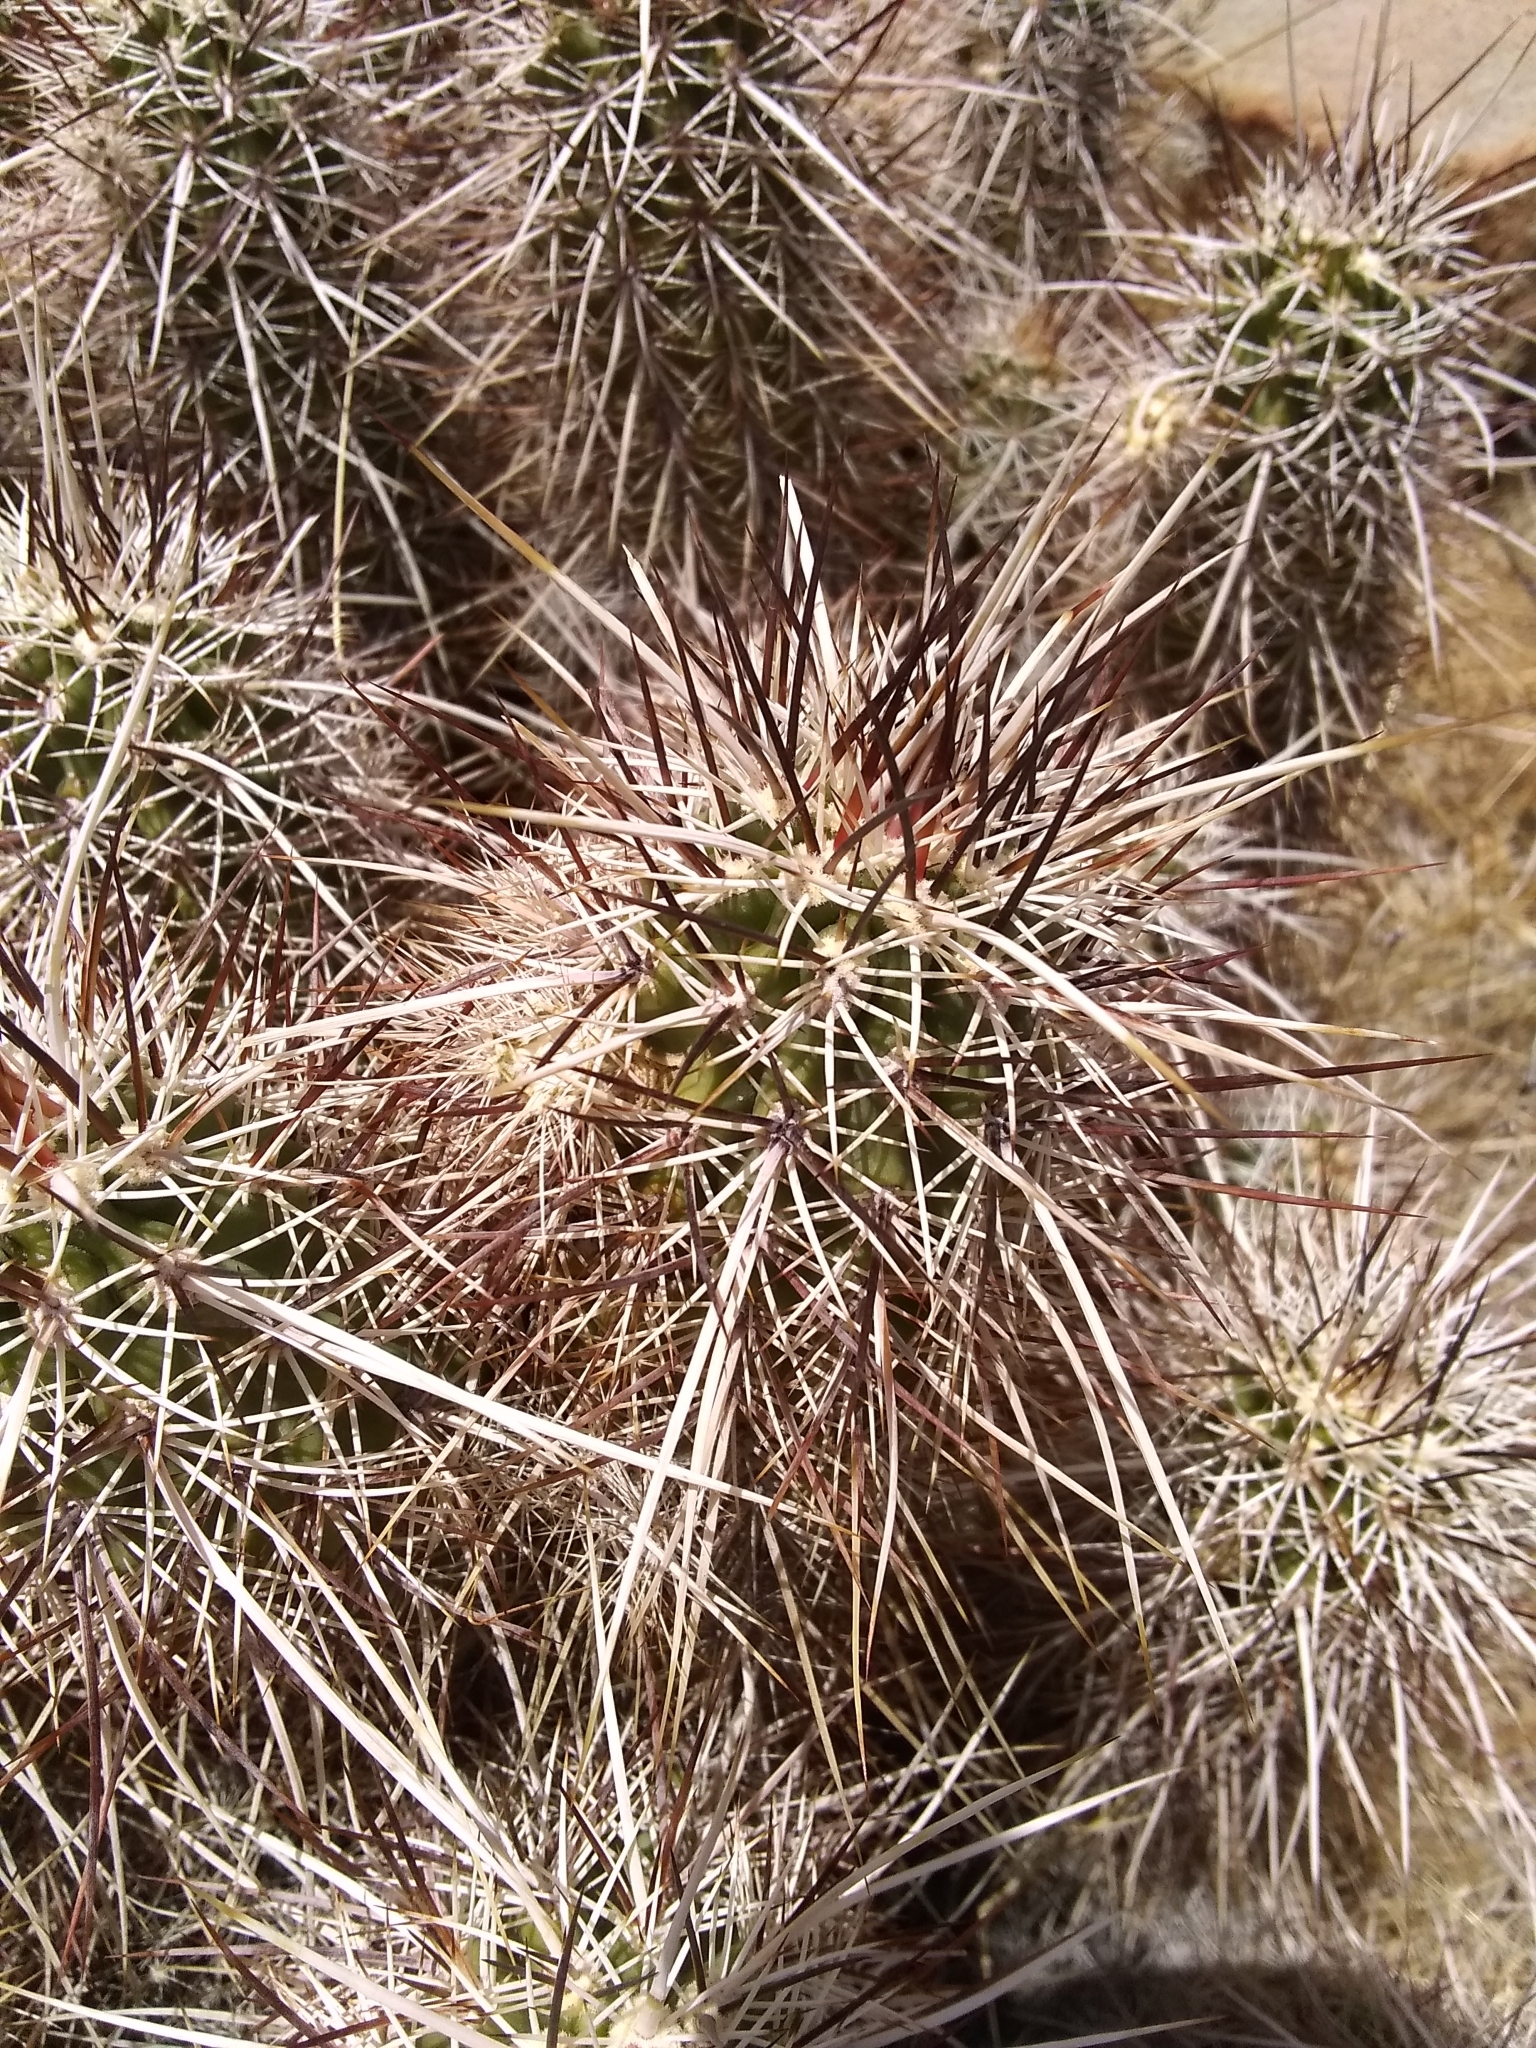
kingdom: Plantae
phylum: Tracheophyta
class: Magnoliopsida
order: Caryophyllales
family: Cactaceae
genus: Echinocereus
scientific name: Echinocereus engelmannii
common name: Engelmann's hedgehog cactus
